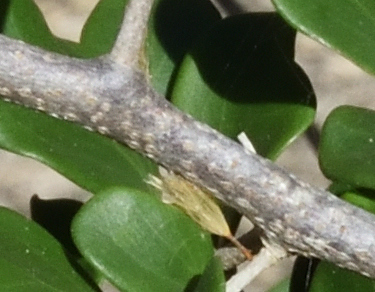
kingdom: Plantae
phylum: Tracheophyta
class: Magnoliopsida
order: Malpighiales
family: Salicaceae
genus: Dovyalis
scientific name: Dovyalis rotundifolia
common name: Dune sourberry
